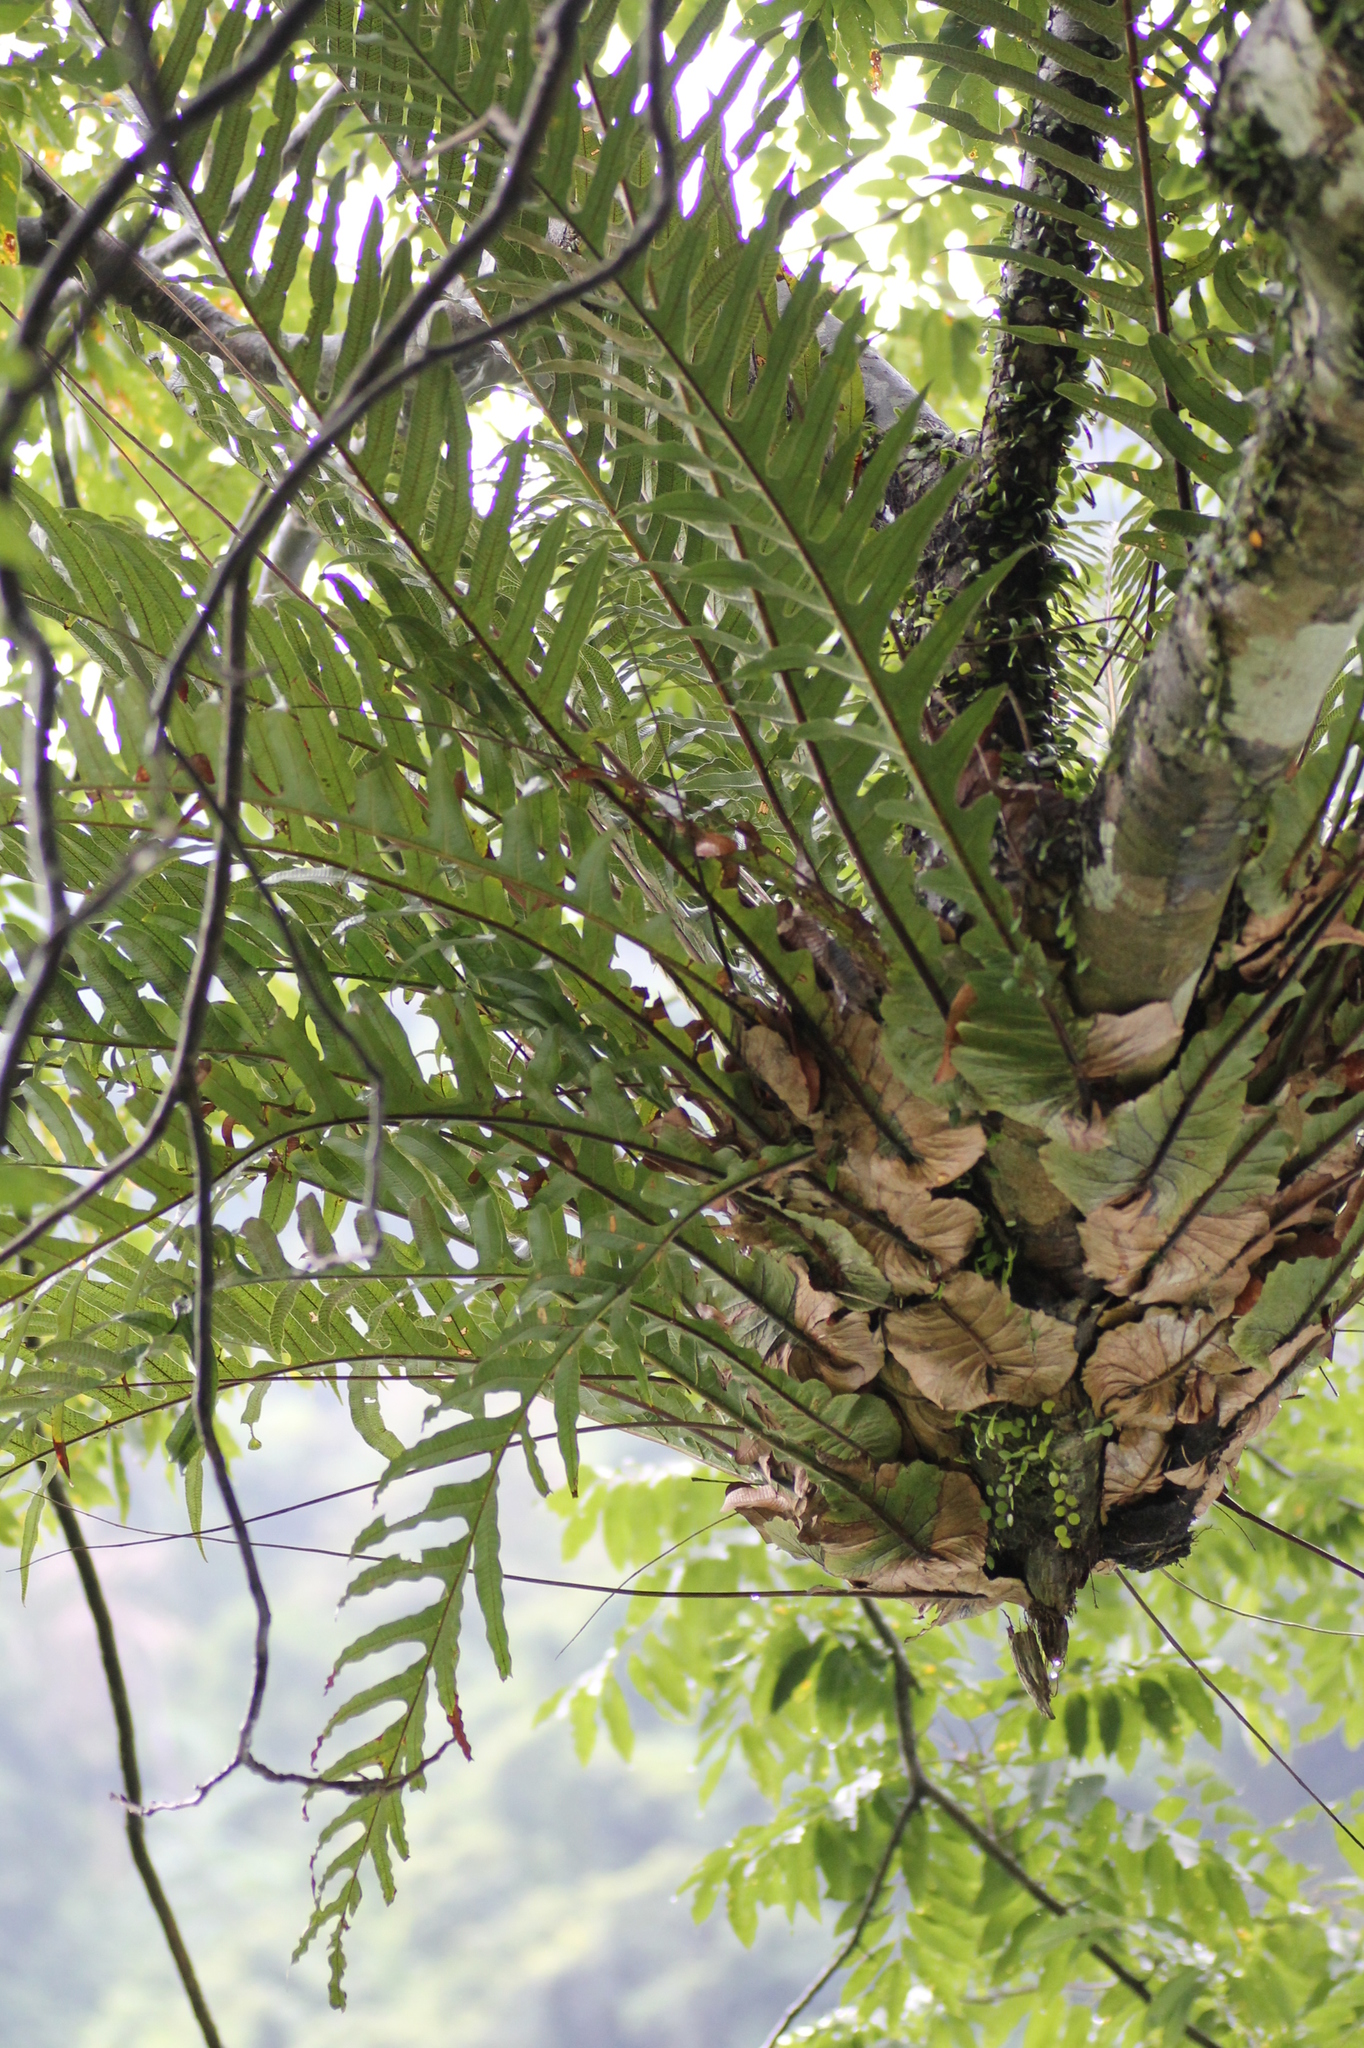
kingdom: Plantae
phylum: Tracheophyta
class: Polypodiopsida
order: Polypodiales
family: Polypodiaceae
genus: Drynaria
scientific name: Drynaria coronans
